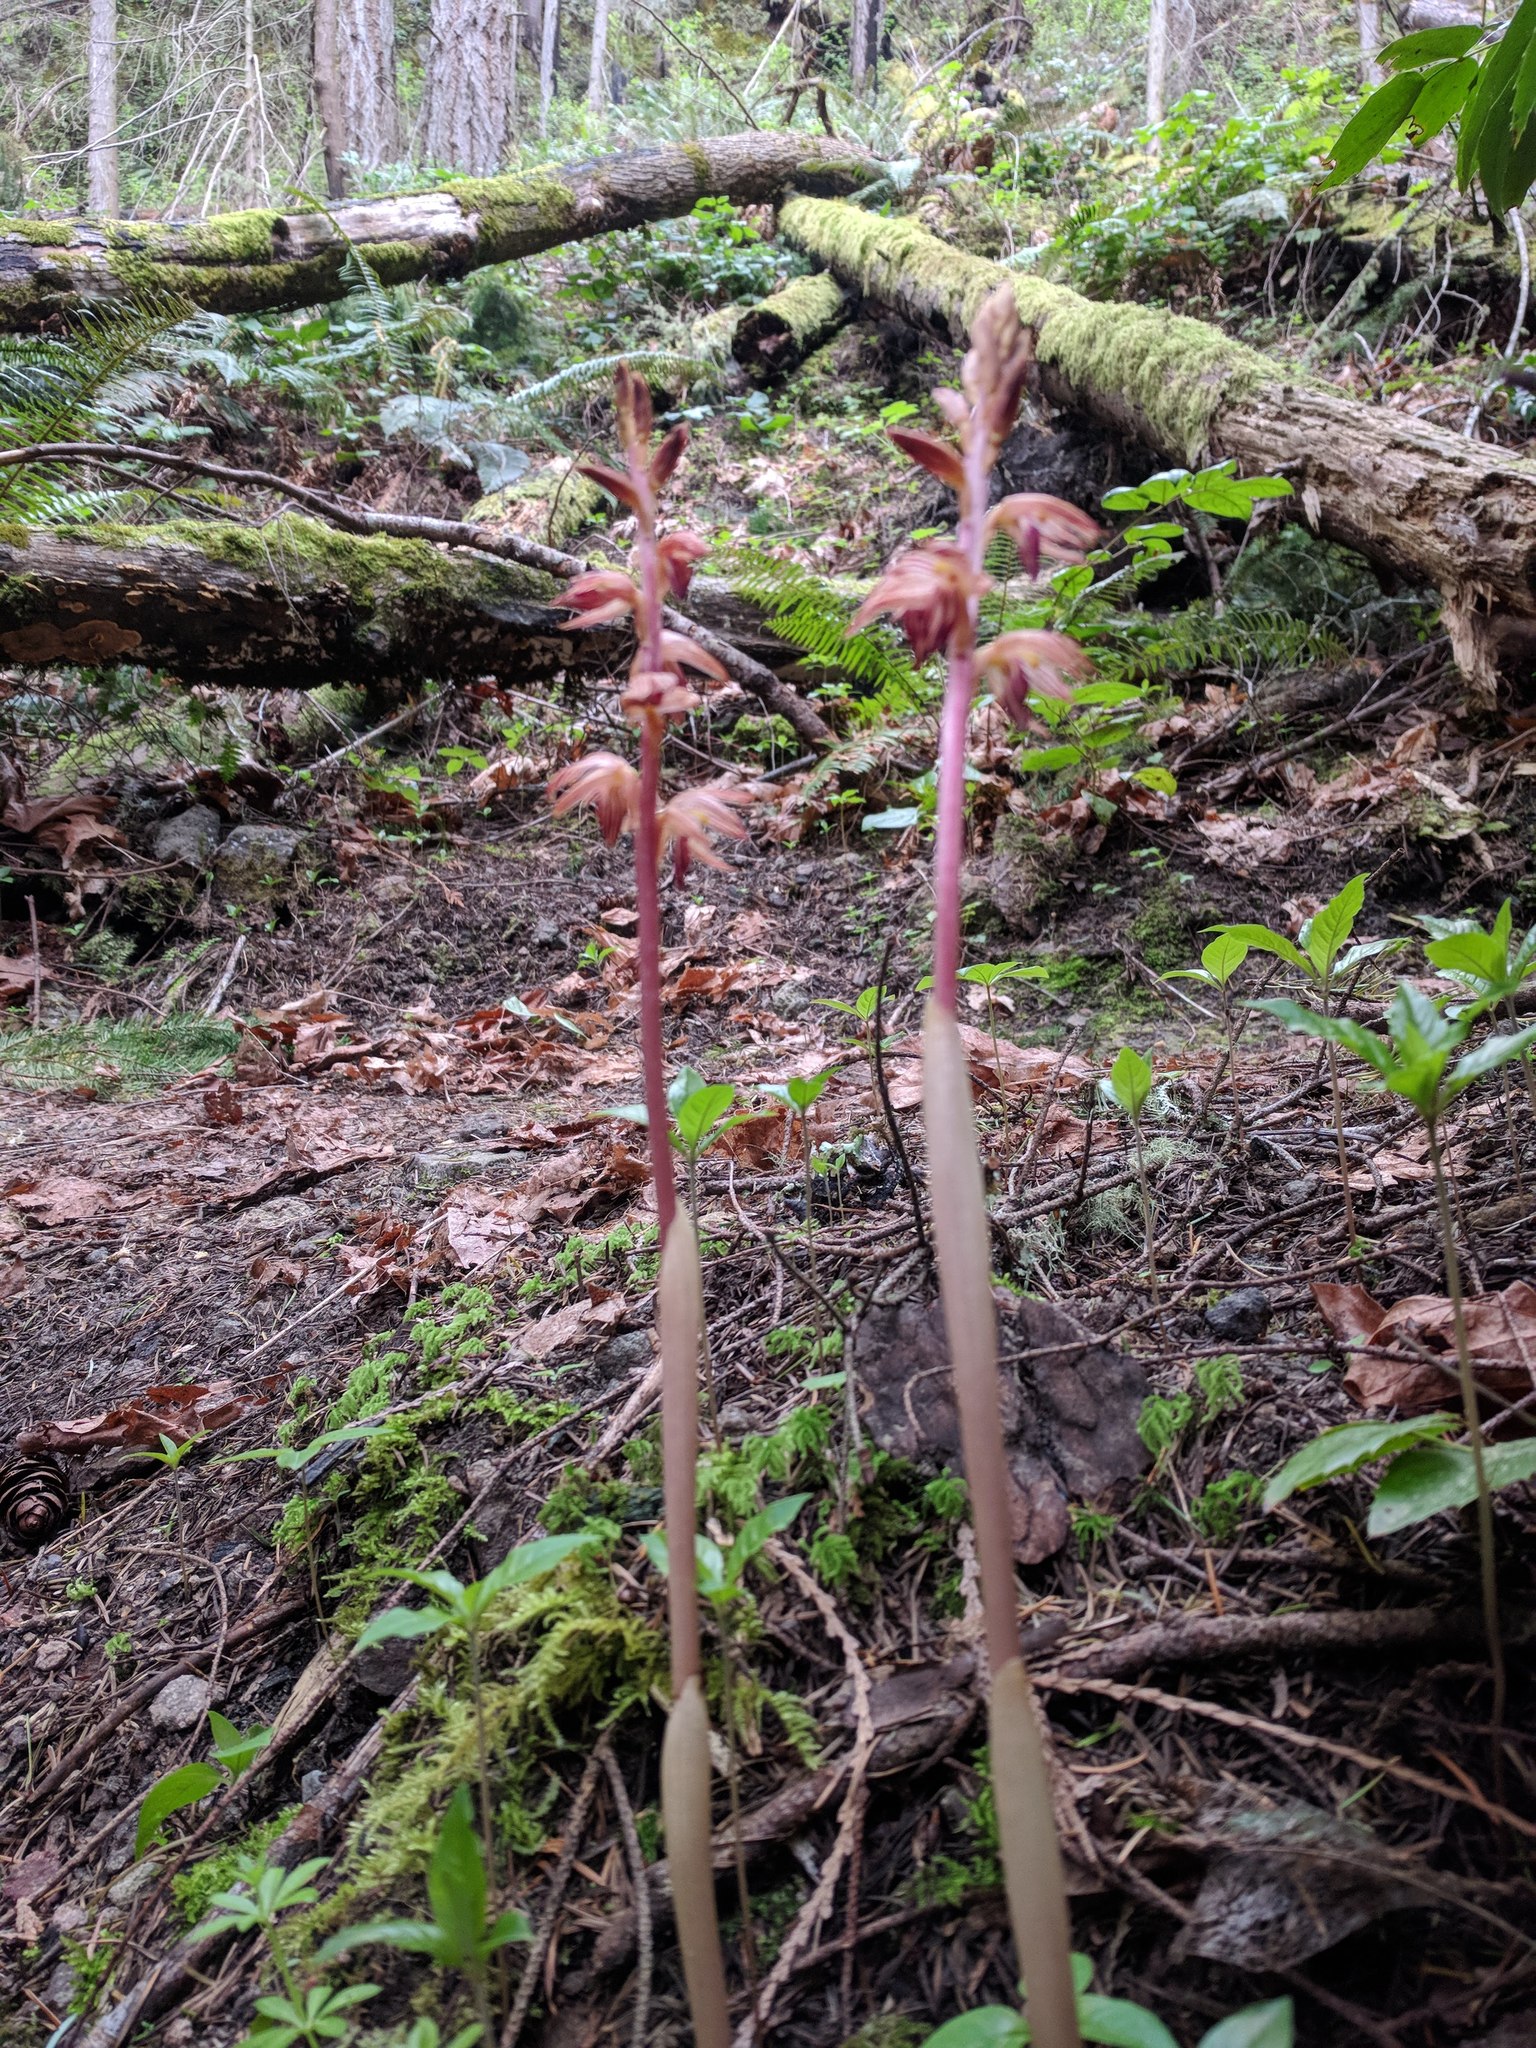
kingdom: Plantae
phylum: Tracheophyta
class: Liliopsida
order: Asparagales
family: Orchidaceae
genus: Corallorhiza
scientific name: Corallorhiza striata
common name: Hooded coralroot
